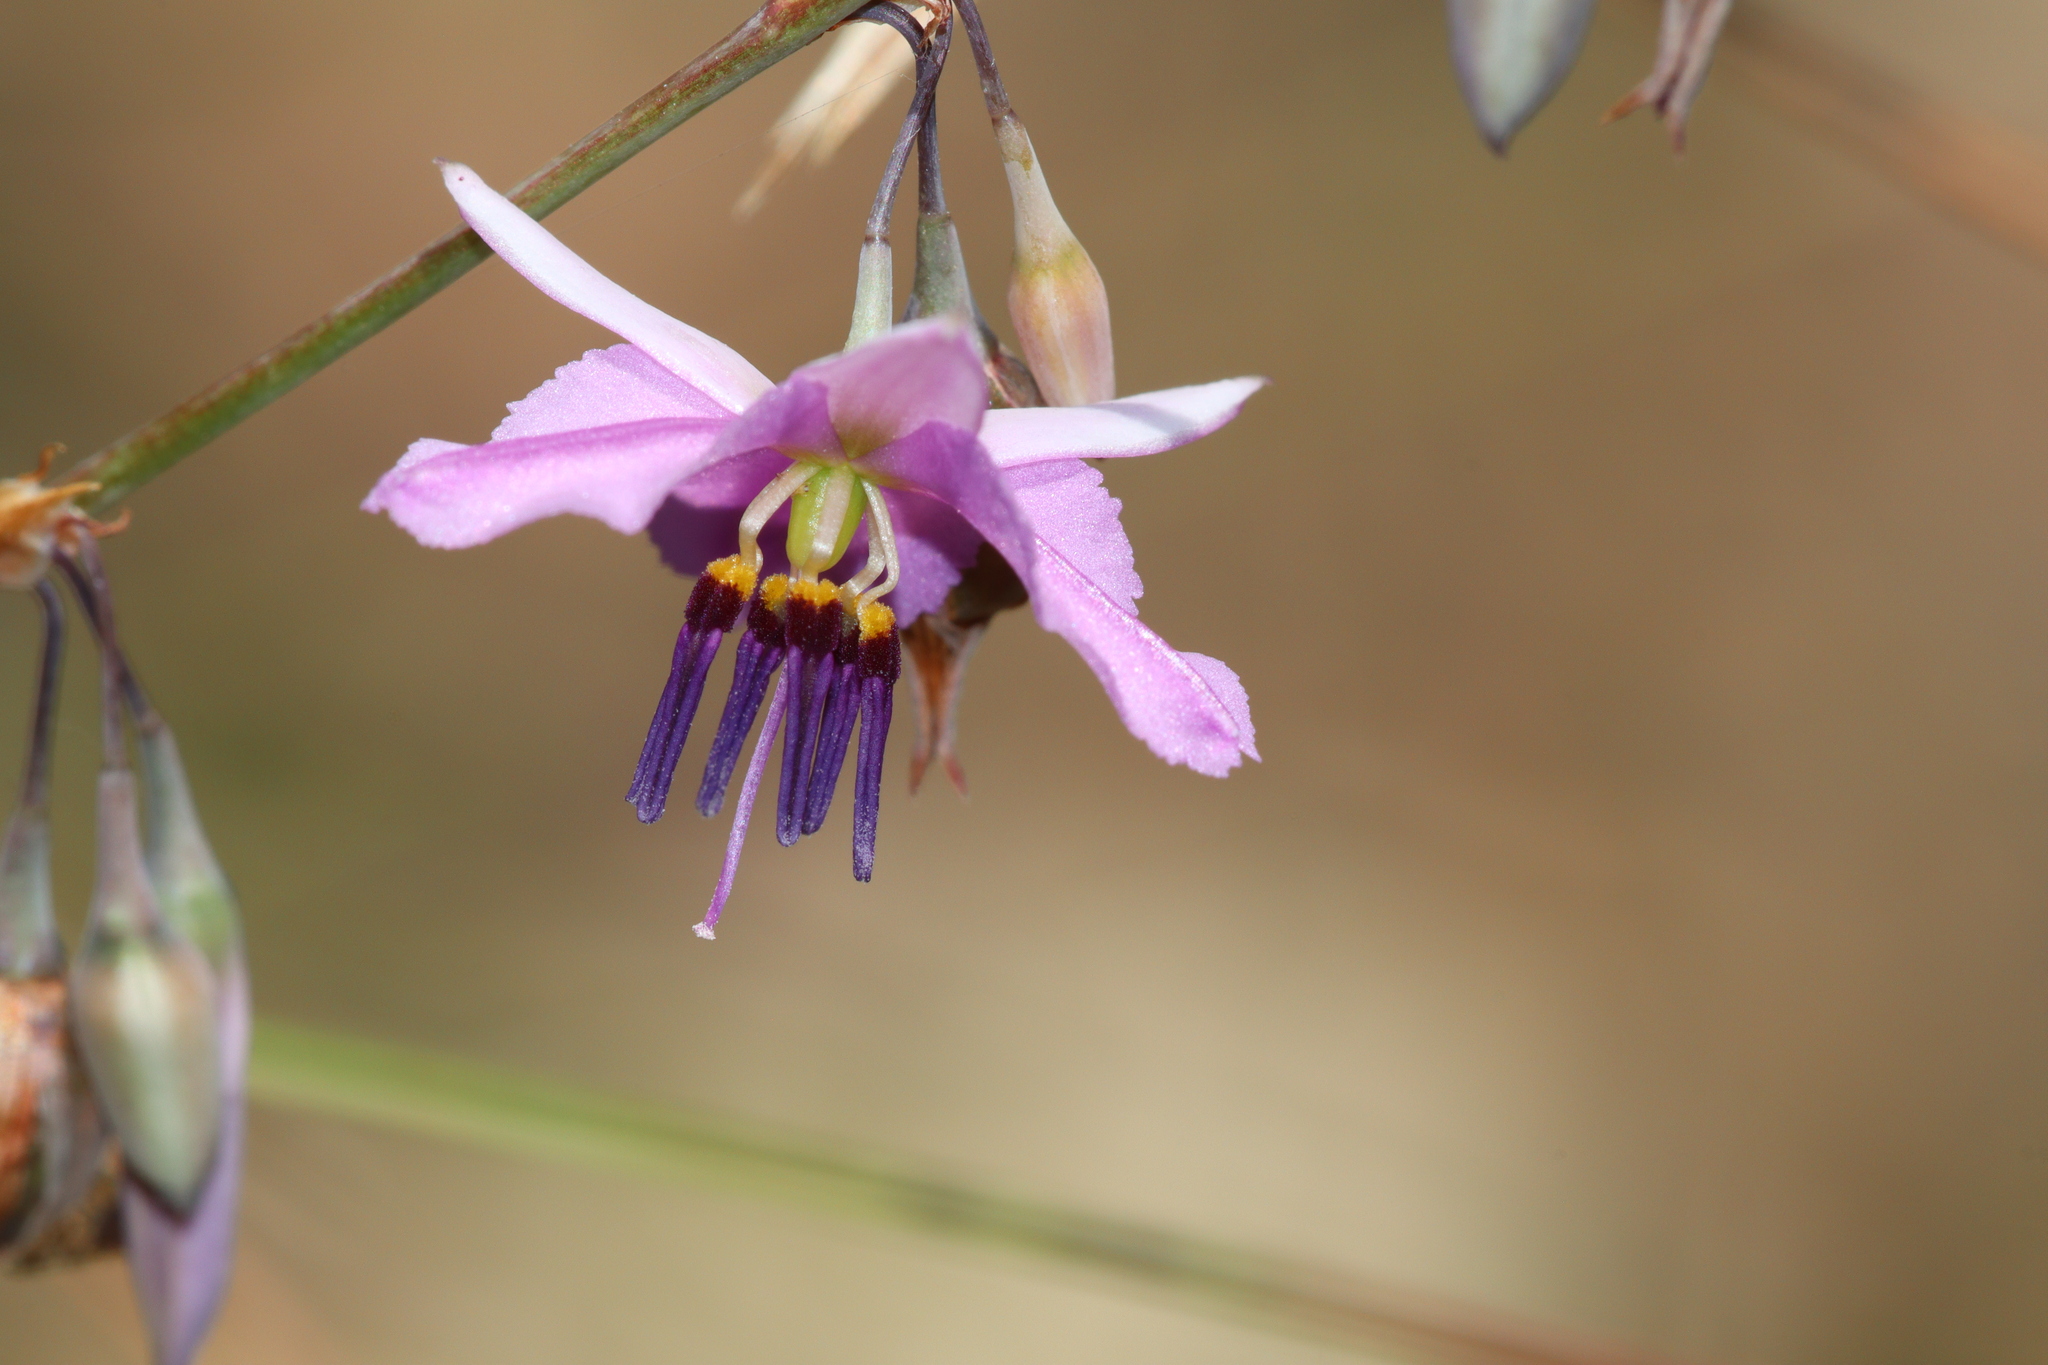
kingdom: Plantae
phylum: Tracheophyta
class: Liliopsida
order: Asparagales
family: Asparagaceae
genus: Dichopogon
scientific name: Dichopogon fimbriatus
